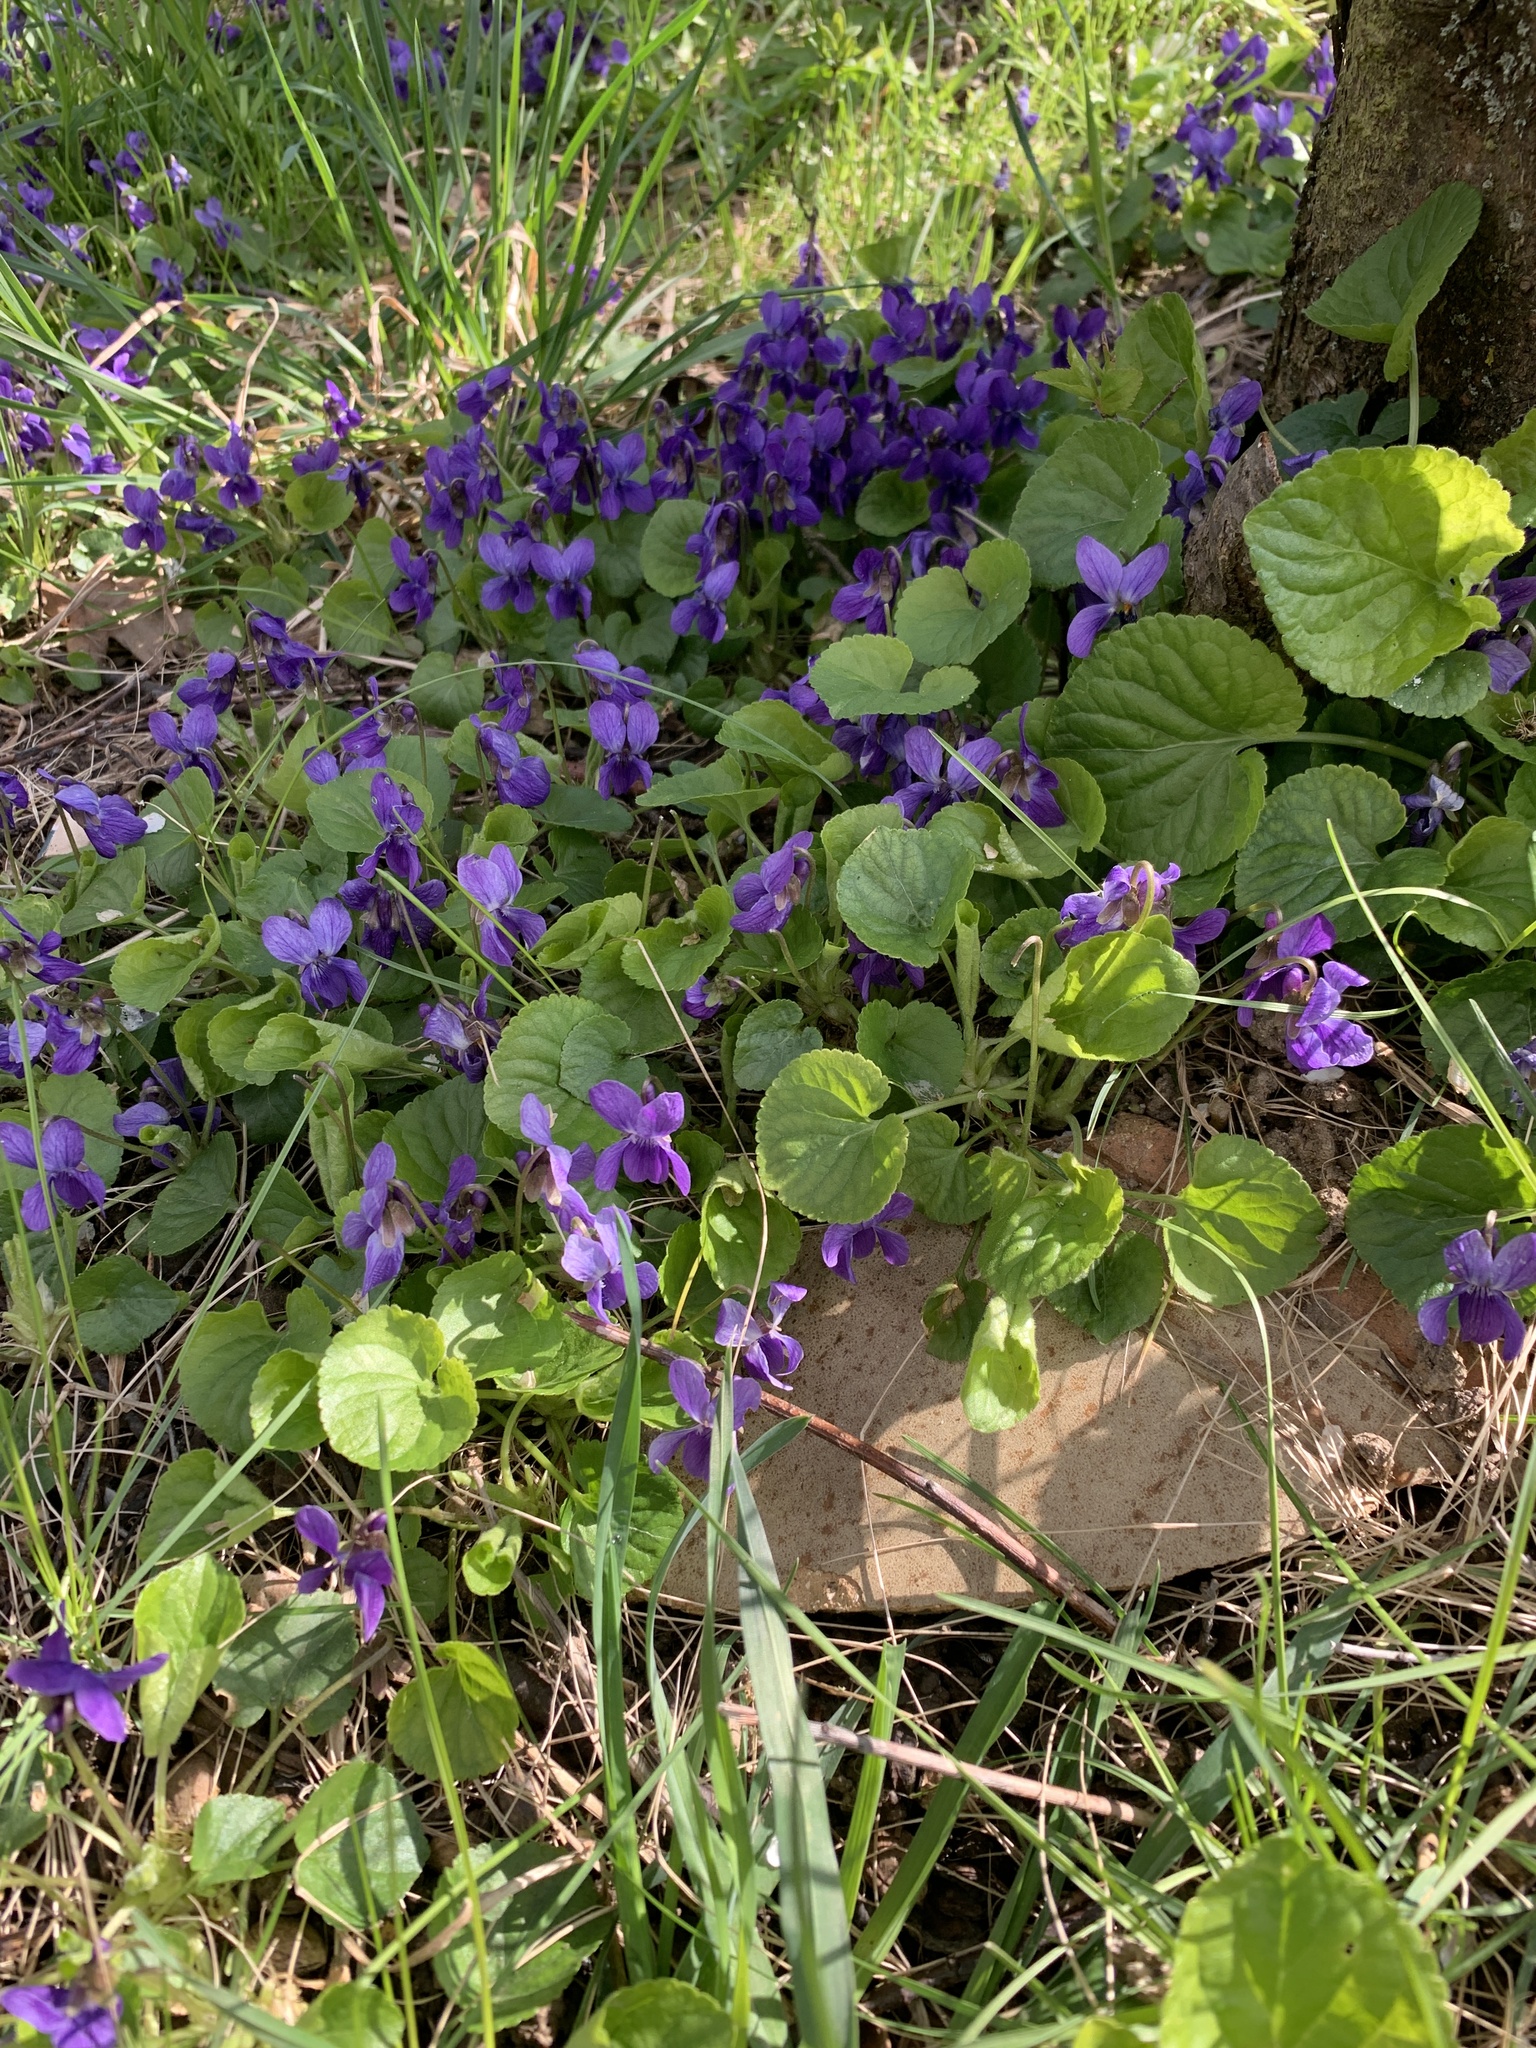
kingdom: Plantae
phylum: Tracheophyta
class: Magnoliopsida
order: Malpighiales
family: Violaceae
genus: Viola
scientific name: Viola odorata
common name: Sweet violet
